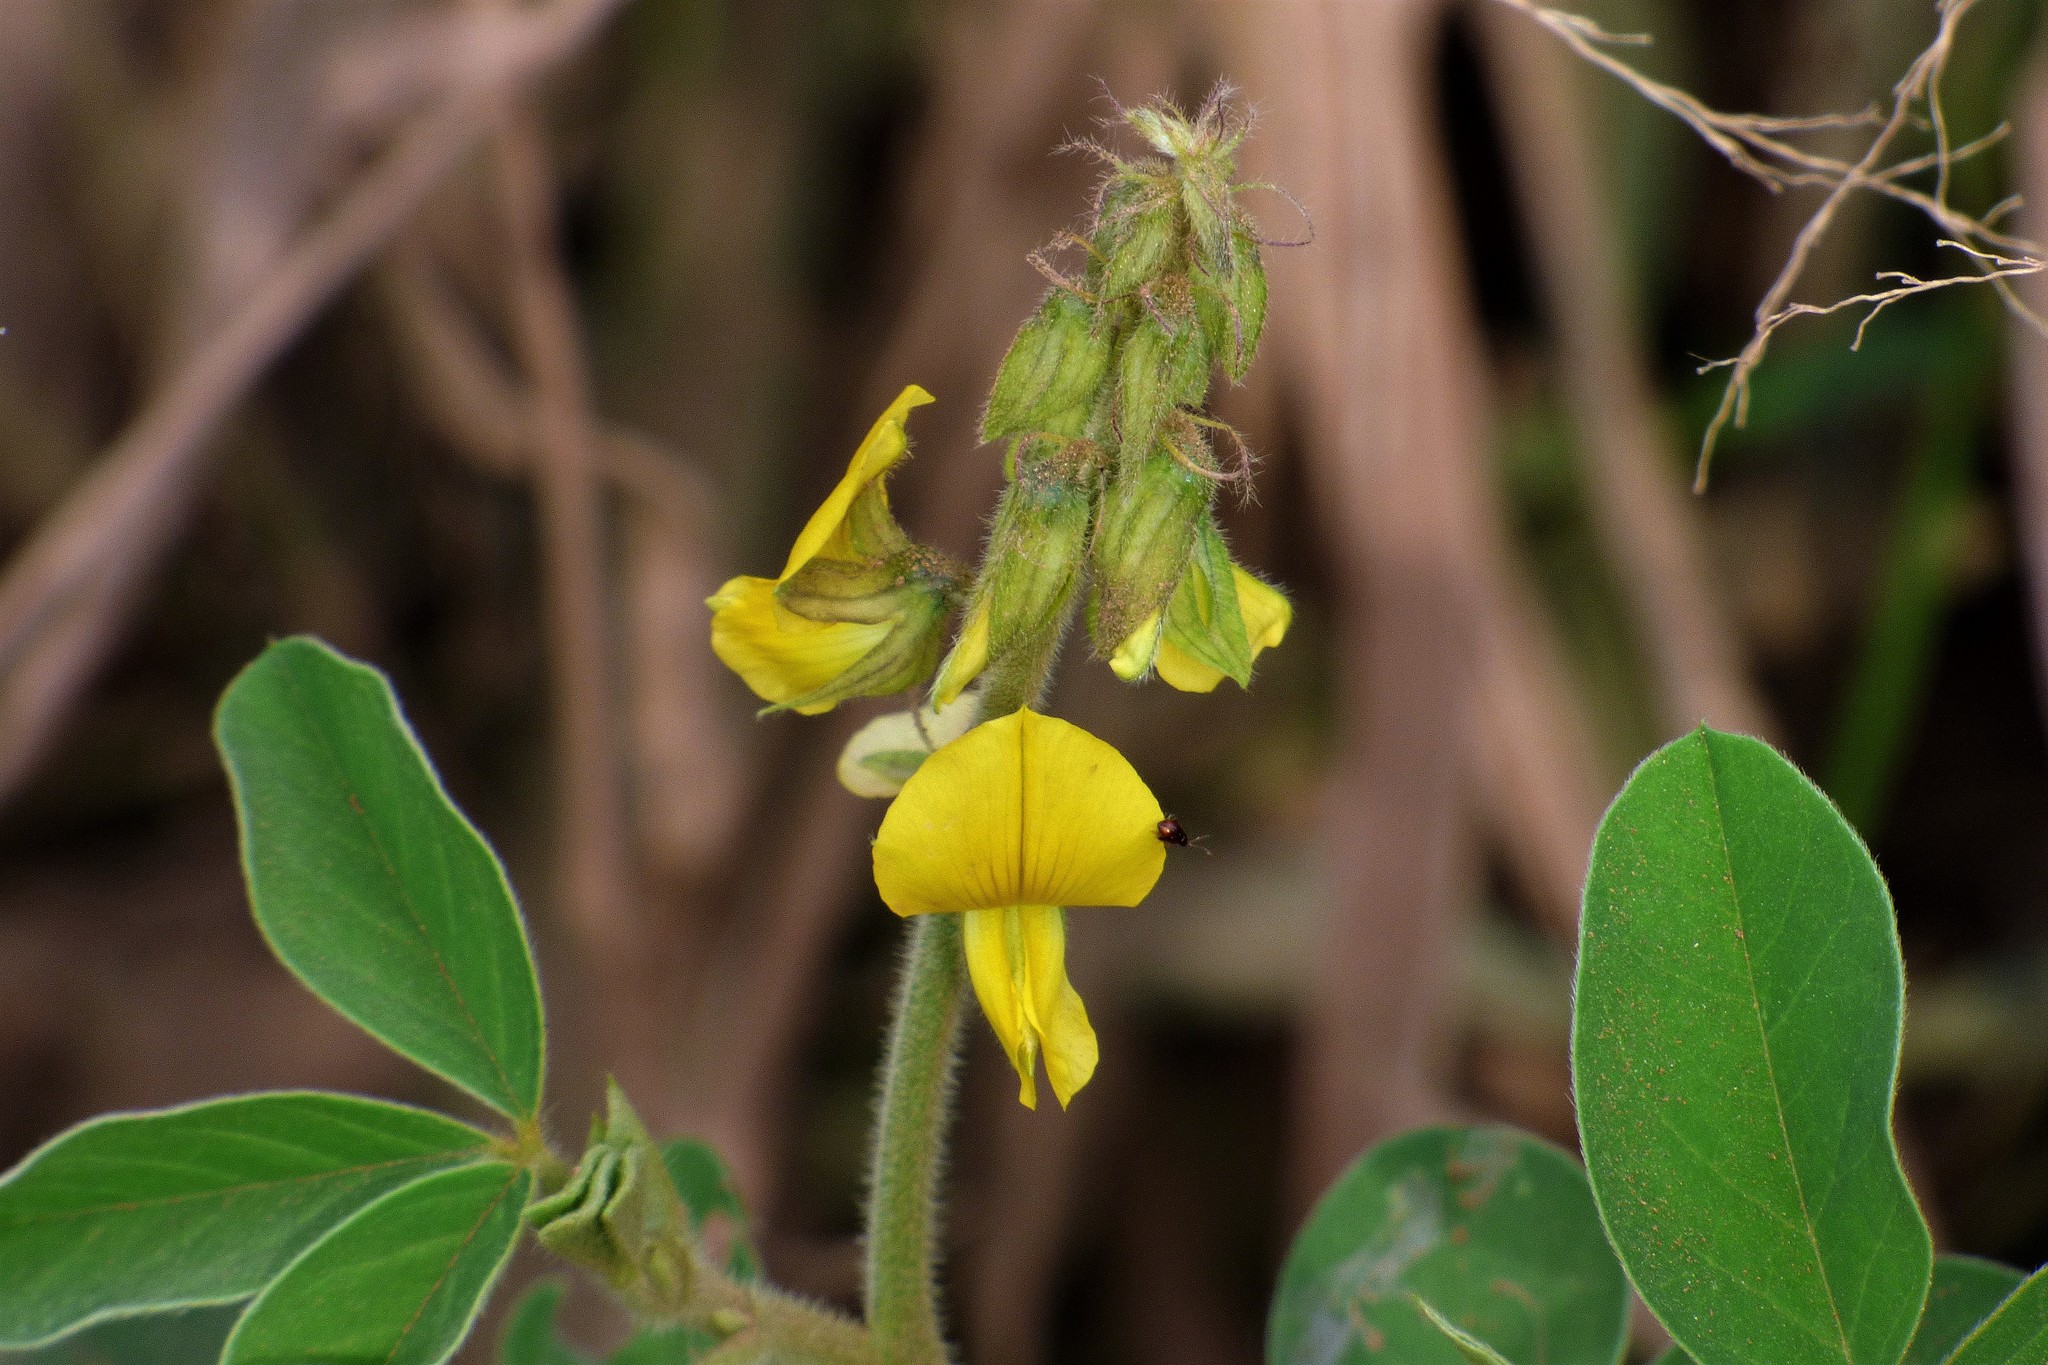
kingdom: Plantae
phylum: Tracheophyta
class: Magnoliopsida
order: Fabales
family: Fabaceae
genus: Crotalaria
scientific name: Crotalaria incana
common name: Shakeshake
